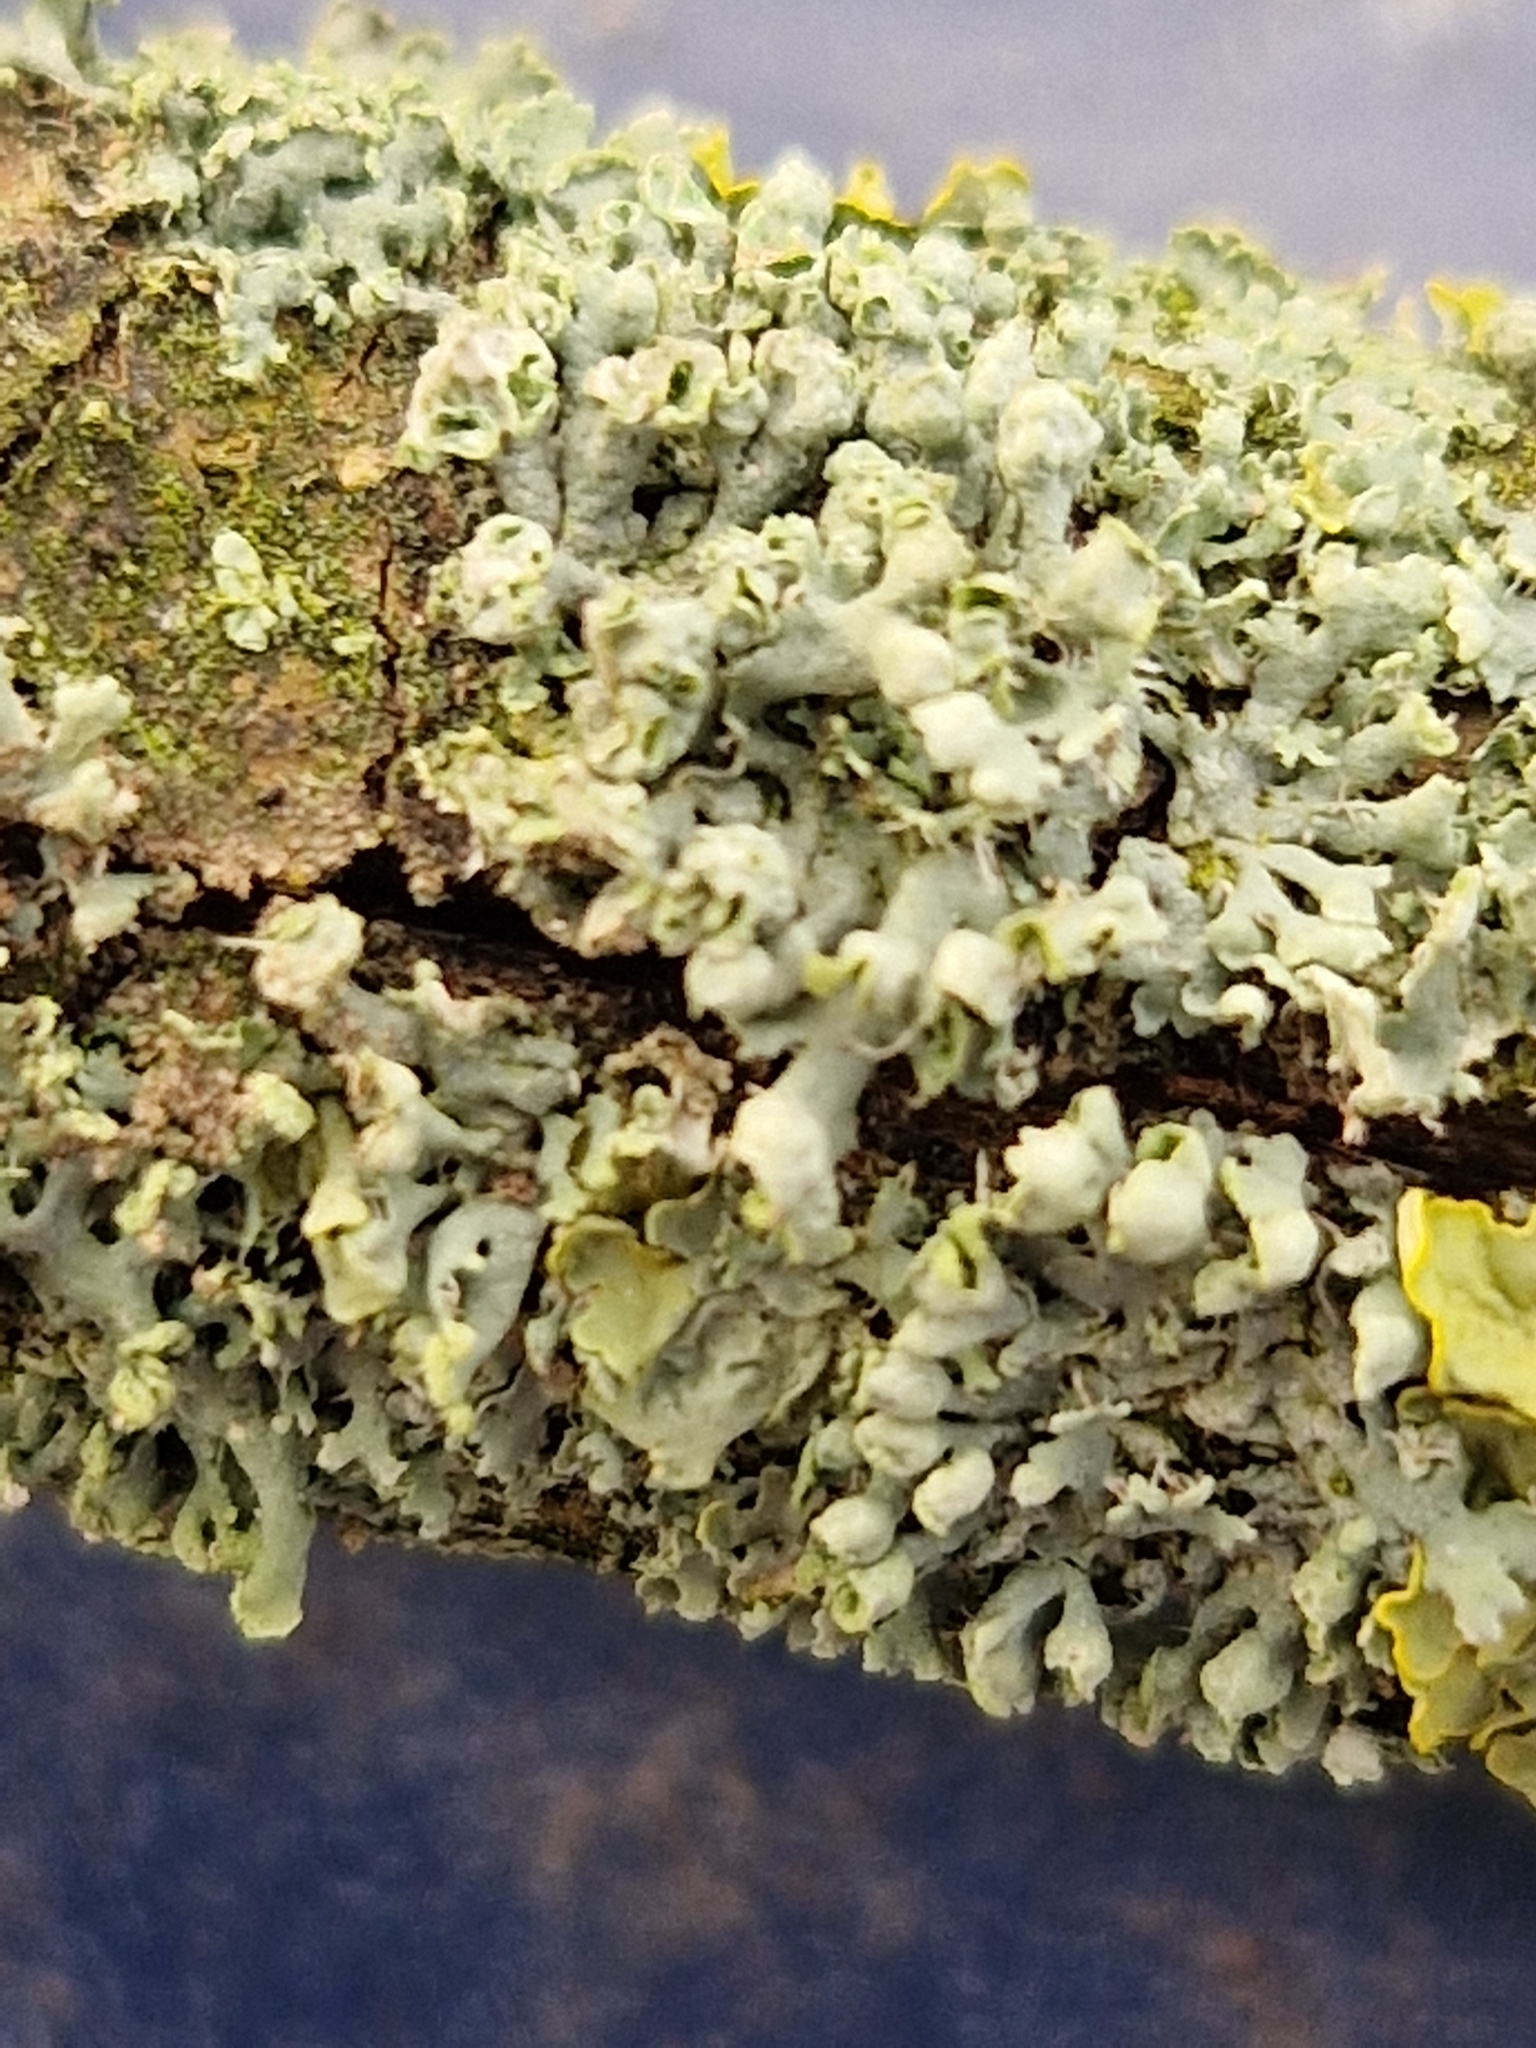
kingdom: Fungi
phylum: Ascomycota
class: Lecanoromycetes
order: Caliciales
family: Physciaceae
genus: Physcia
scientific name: Physcia adscendens
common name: Hooded rosette lichen
